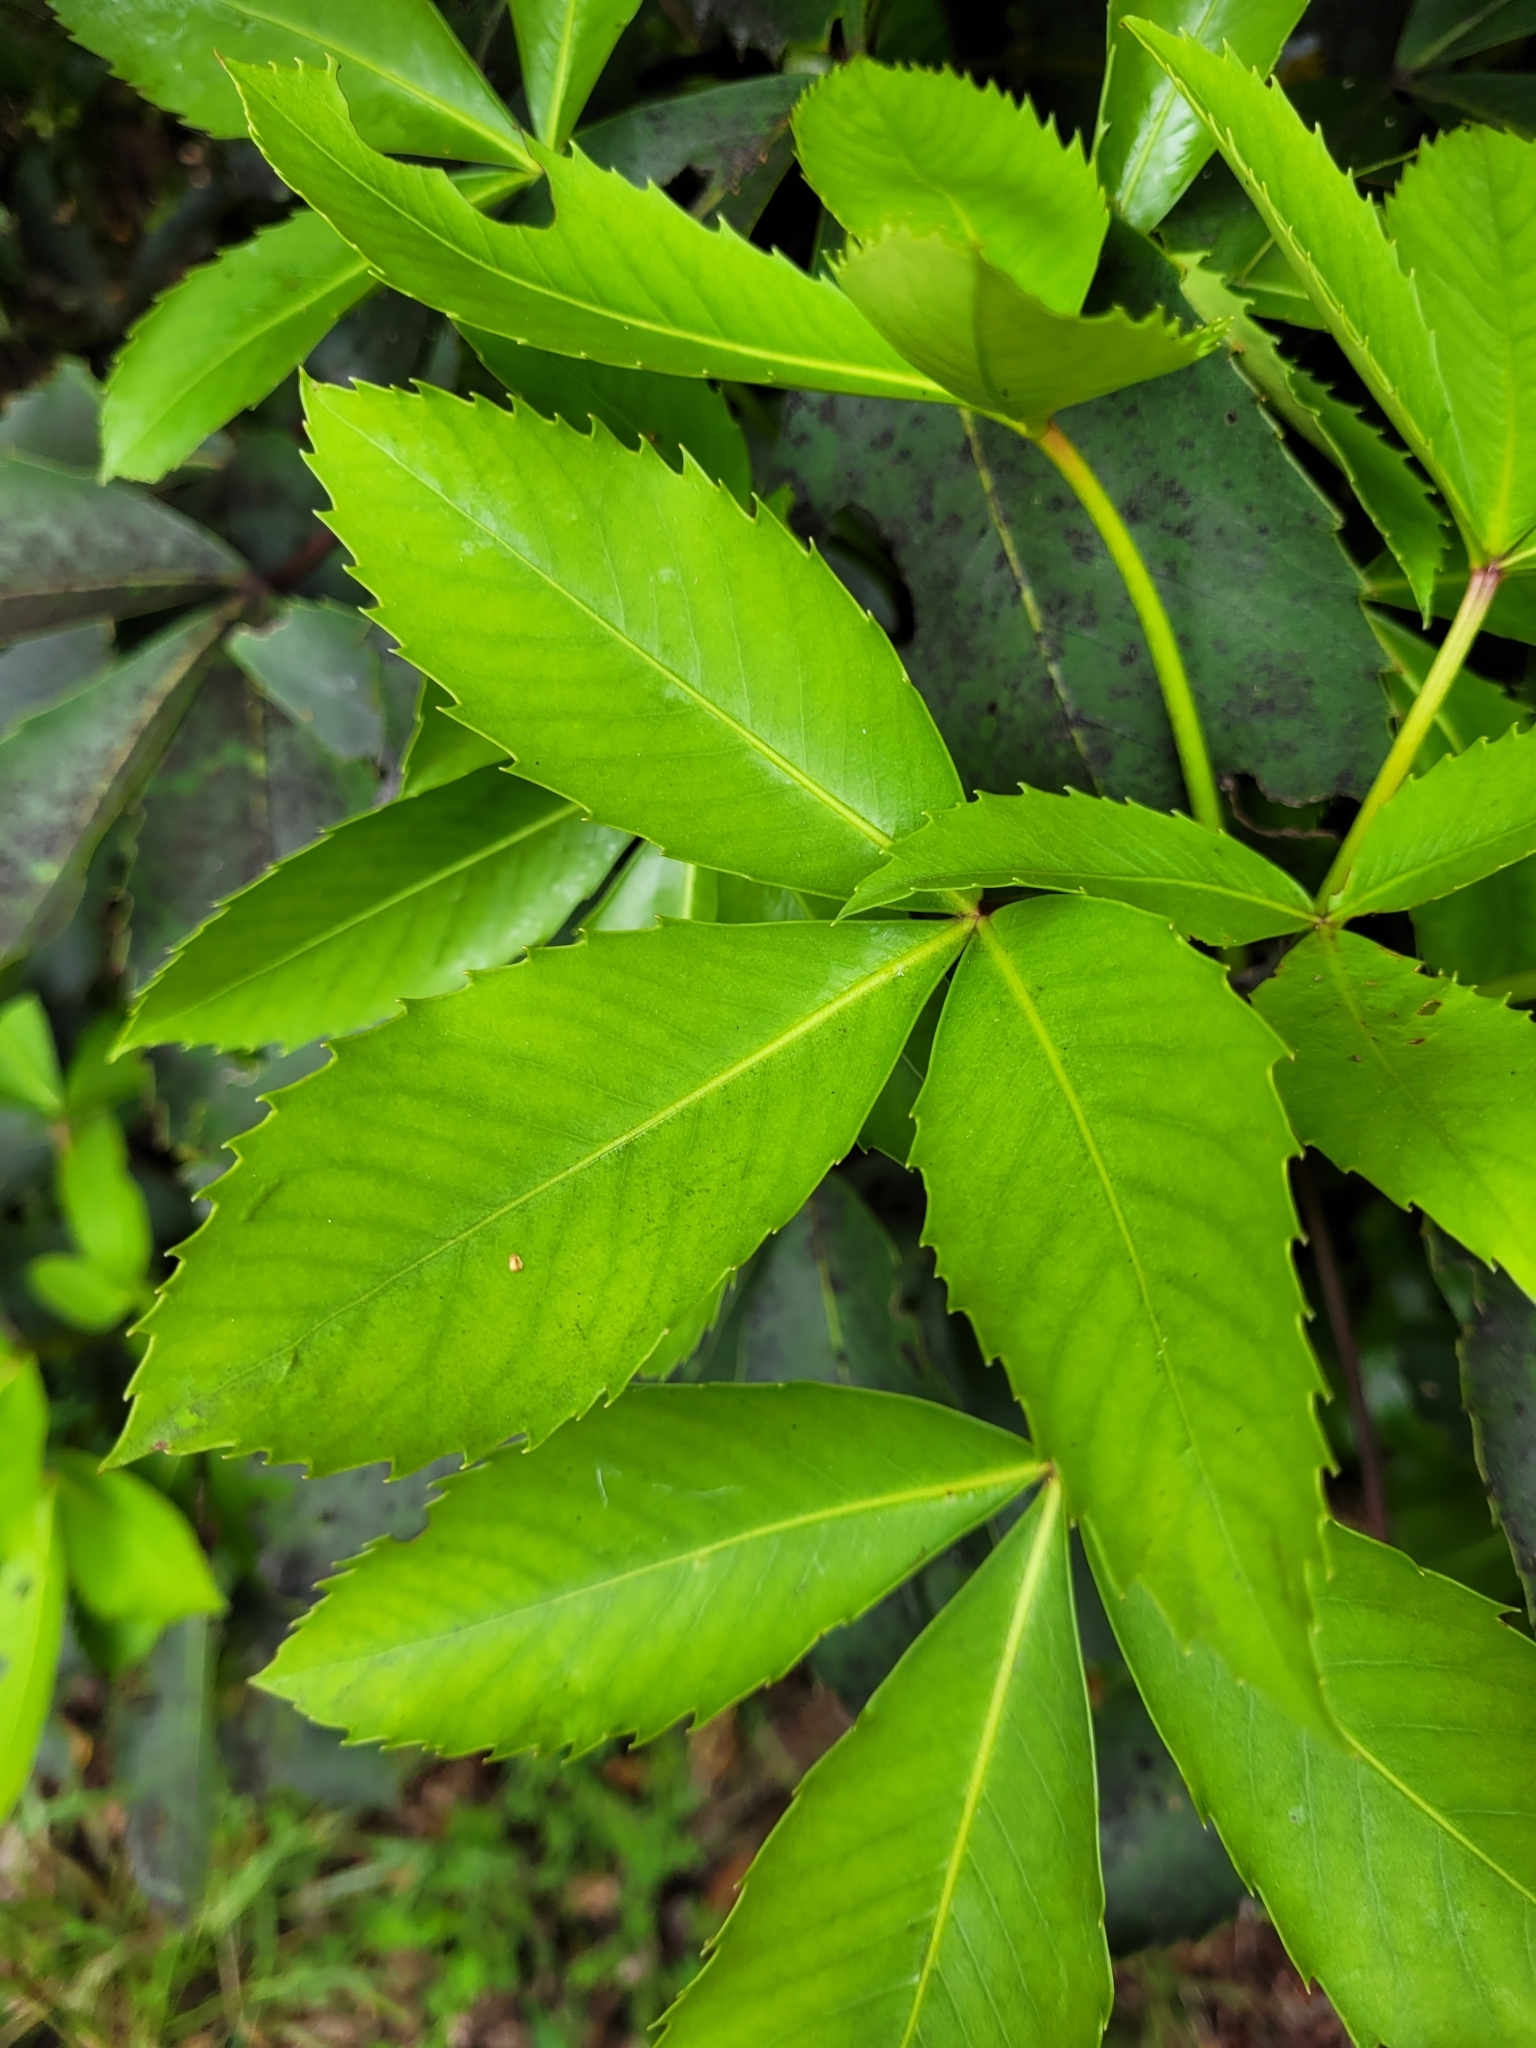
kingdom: Plantae
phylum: Tracheophyta
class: Magnoliopsida
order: Apiales
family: Araliaceae
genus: Neopanax
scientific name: Neopanax colensoi
